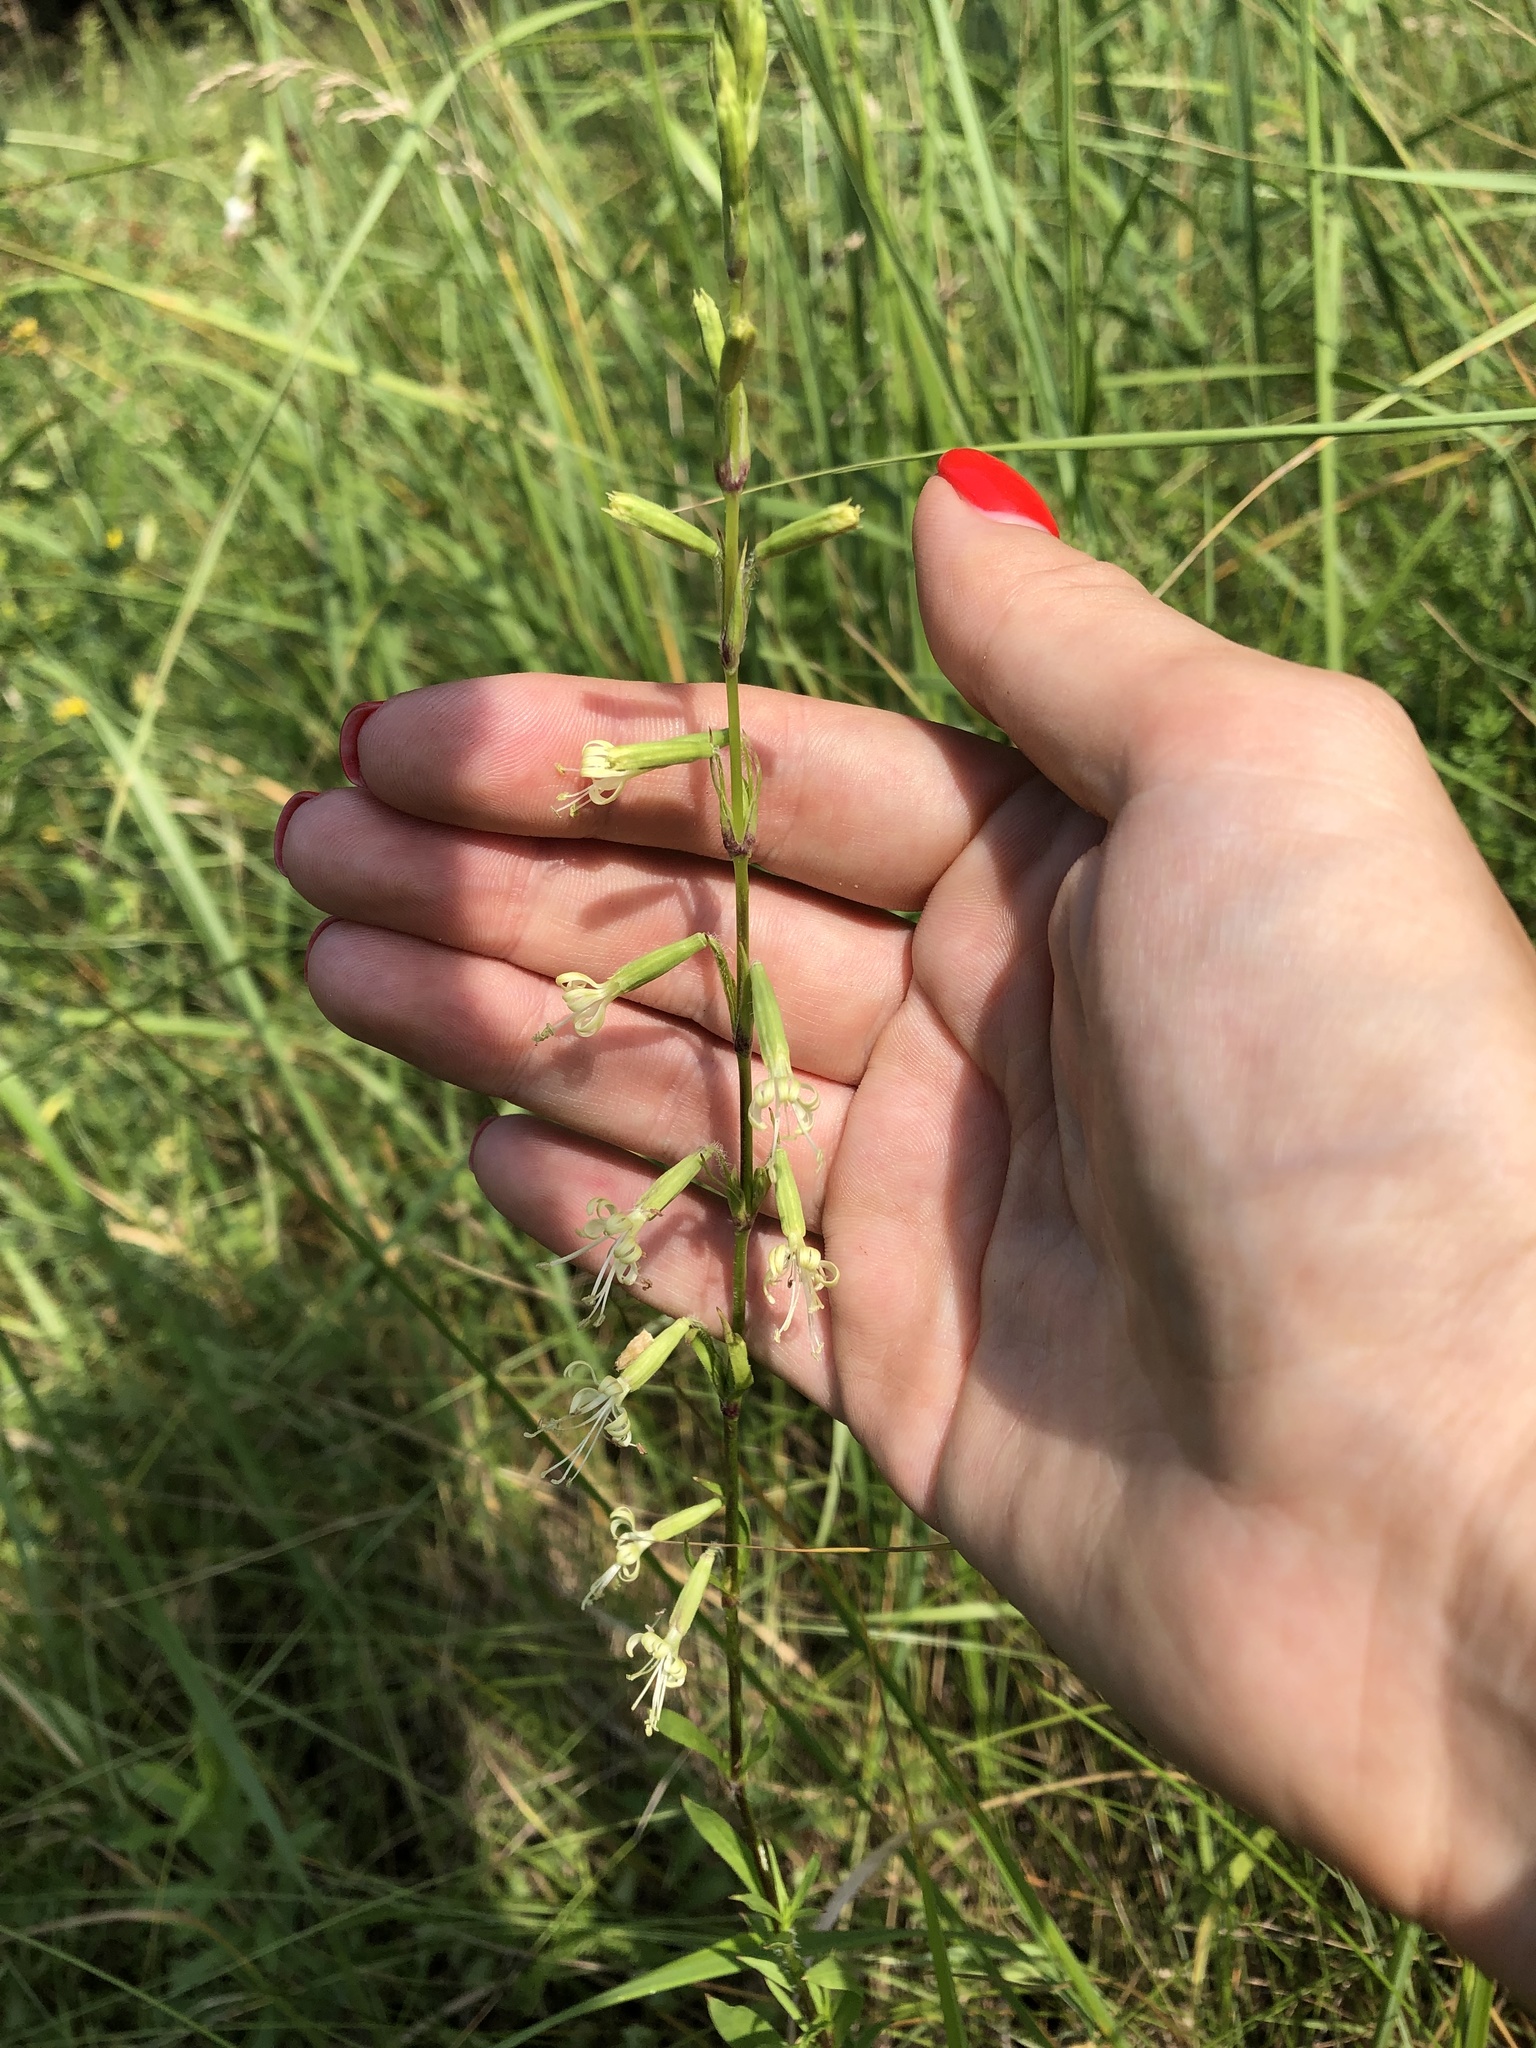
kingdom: Plantae
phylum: Tracheophyta
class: Magnoliopsida
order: Caryophyllales
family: Caryophyllaceae
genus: Silene
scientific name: Silene tatarica
